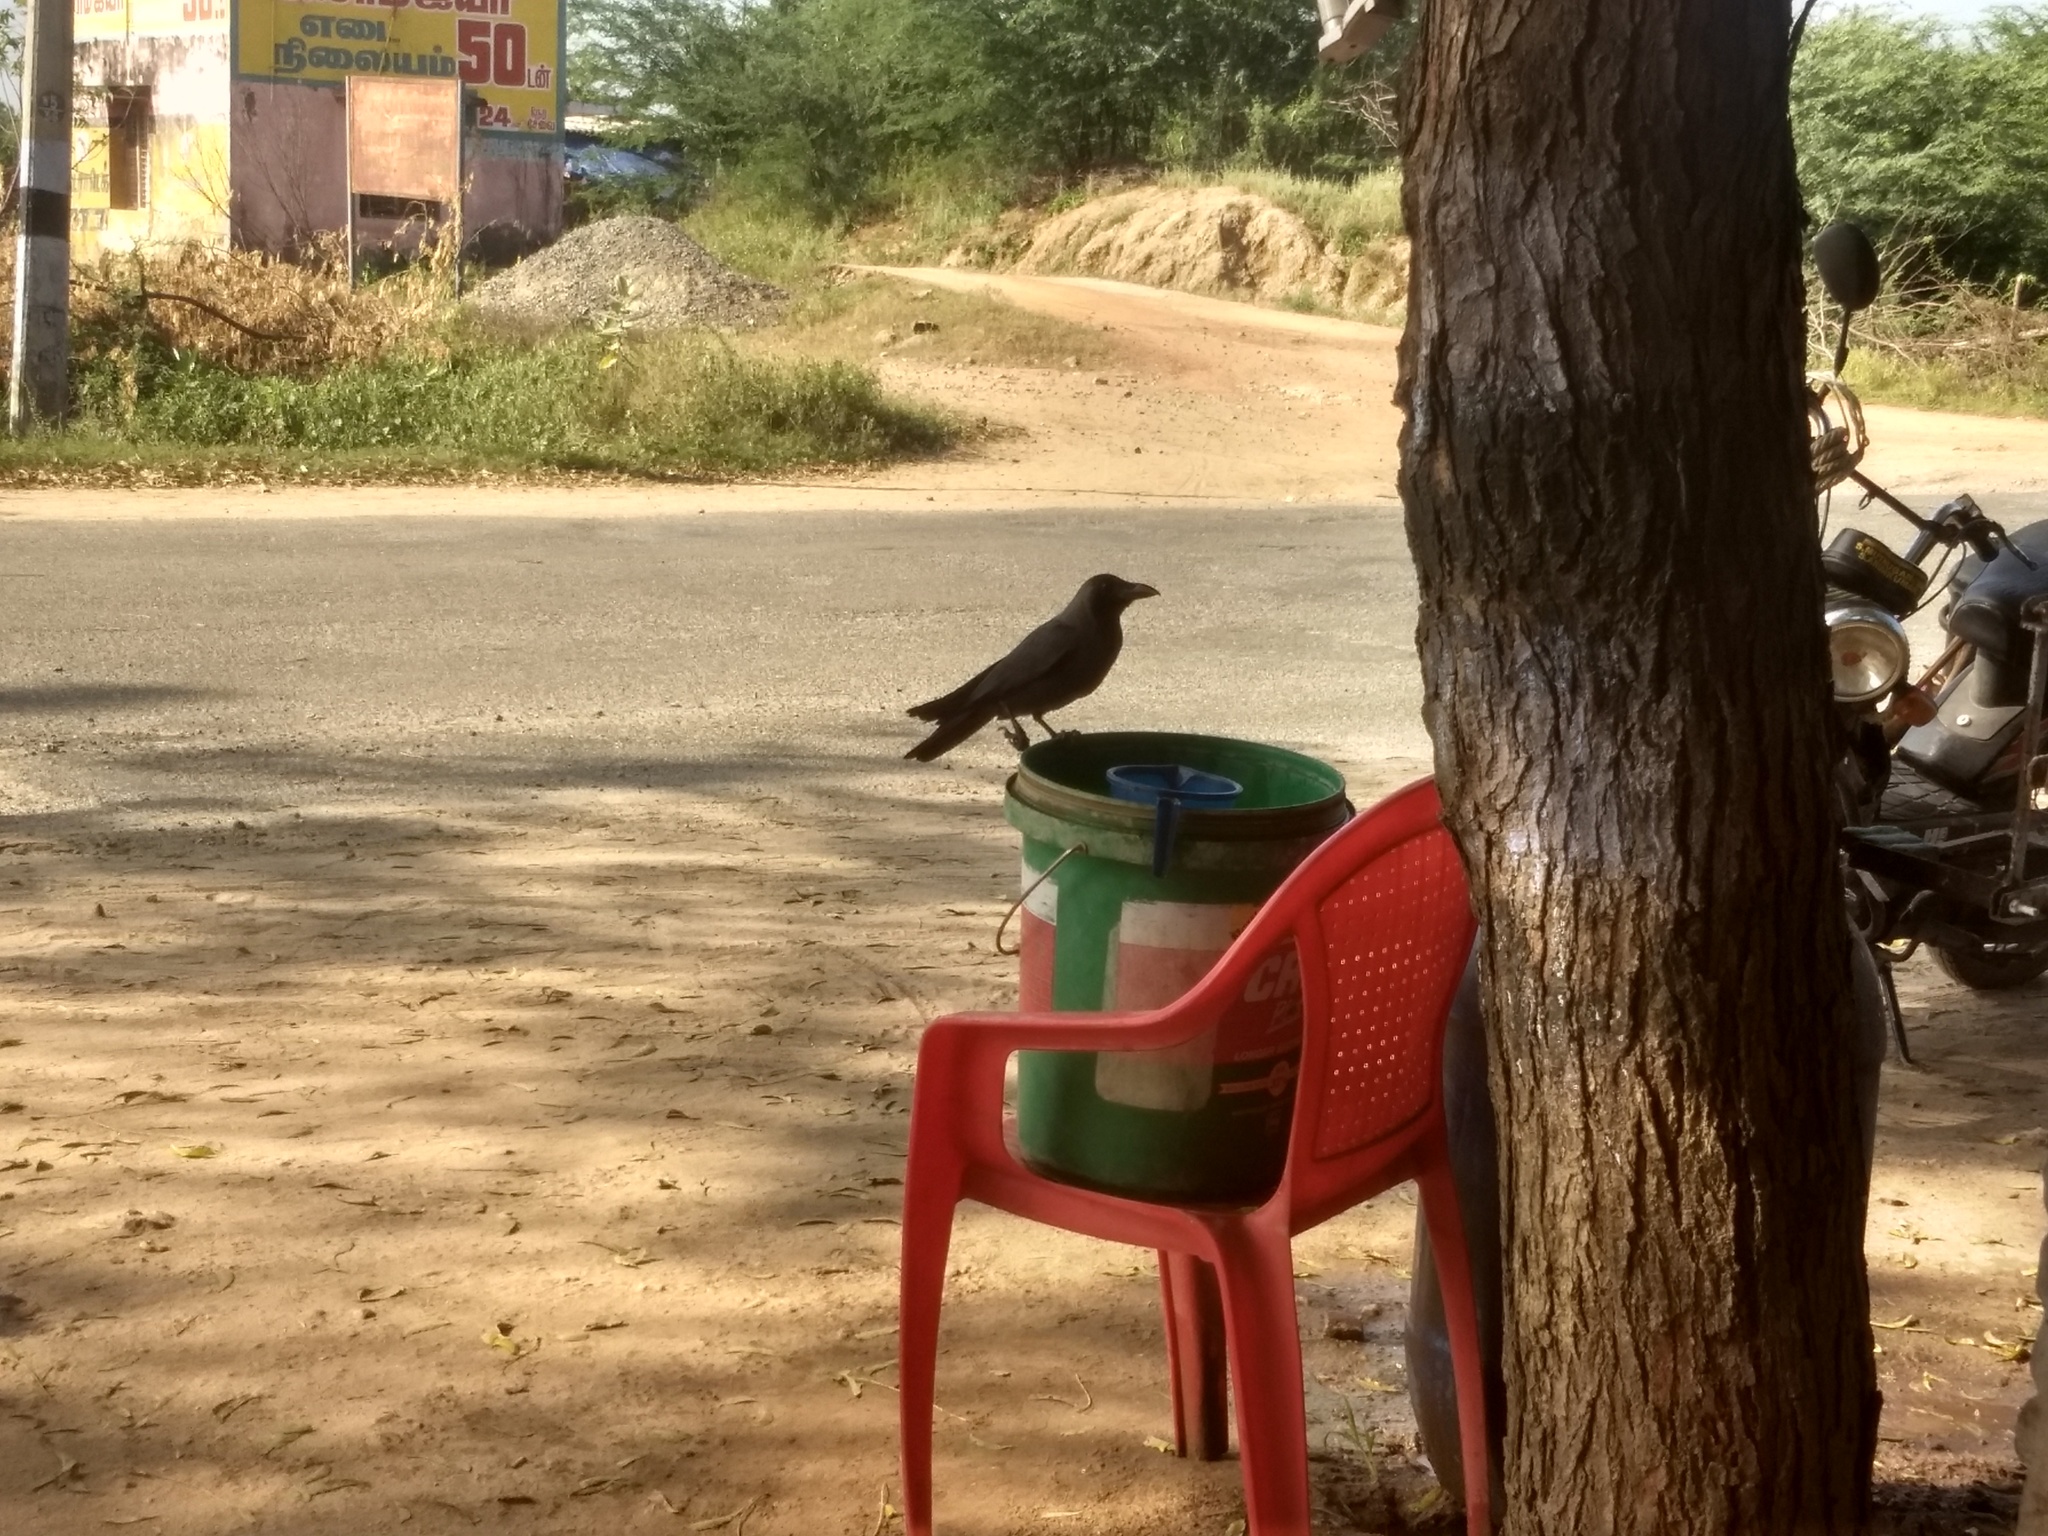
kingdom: Animalia
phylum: Chordata
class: Aves
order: Passeriformes
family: Corvidae
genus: Corvus
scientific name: Corvus splendens
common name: House crow
